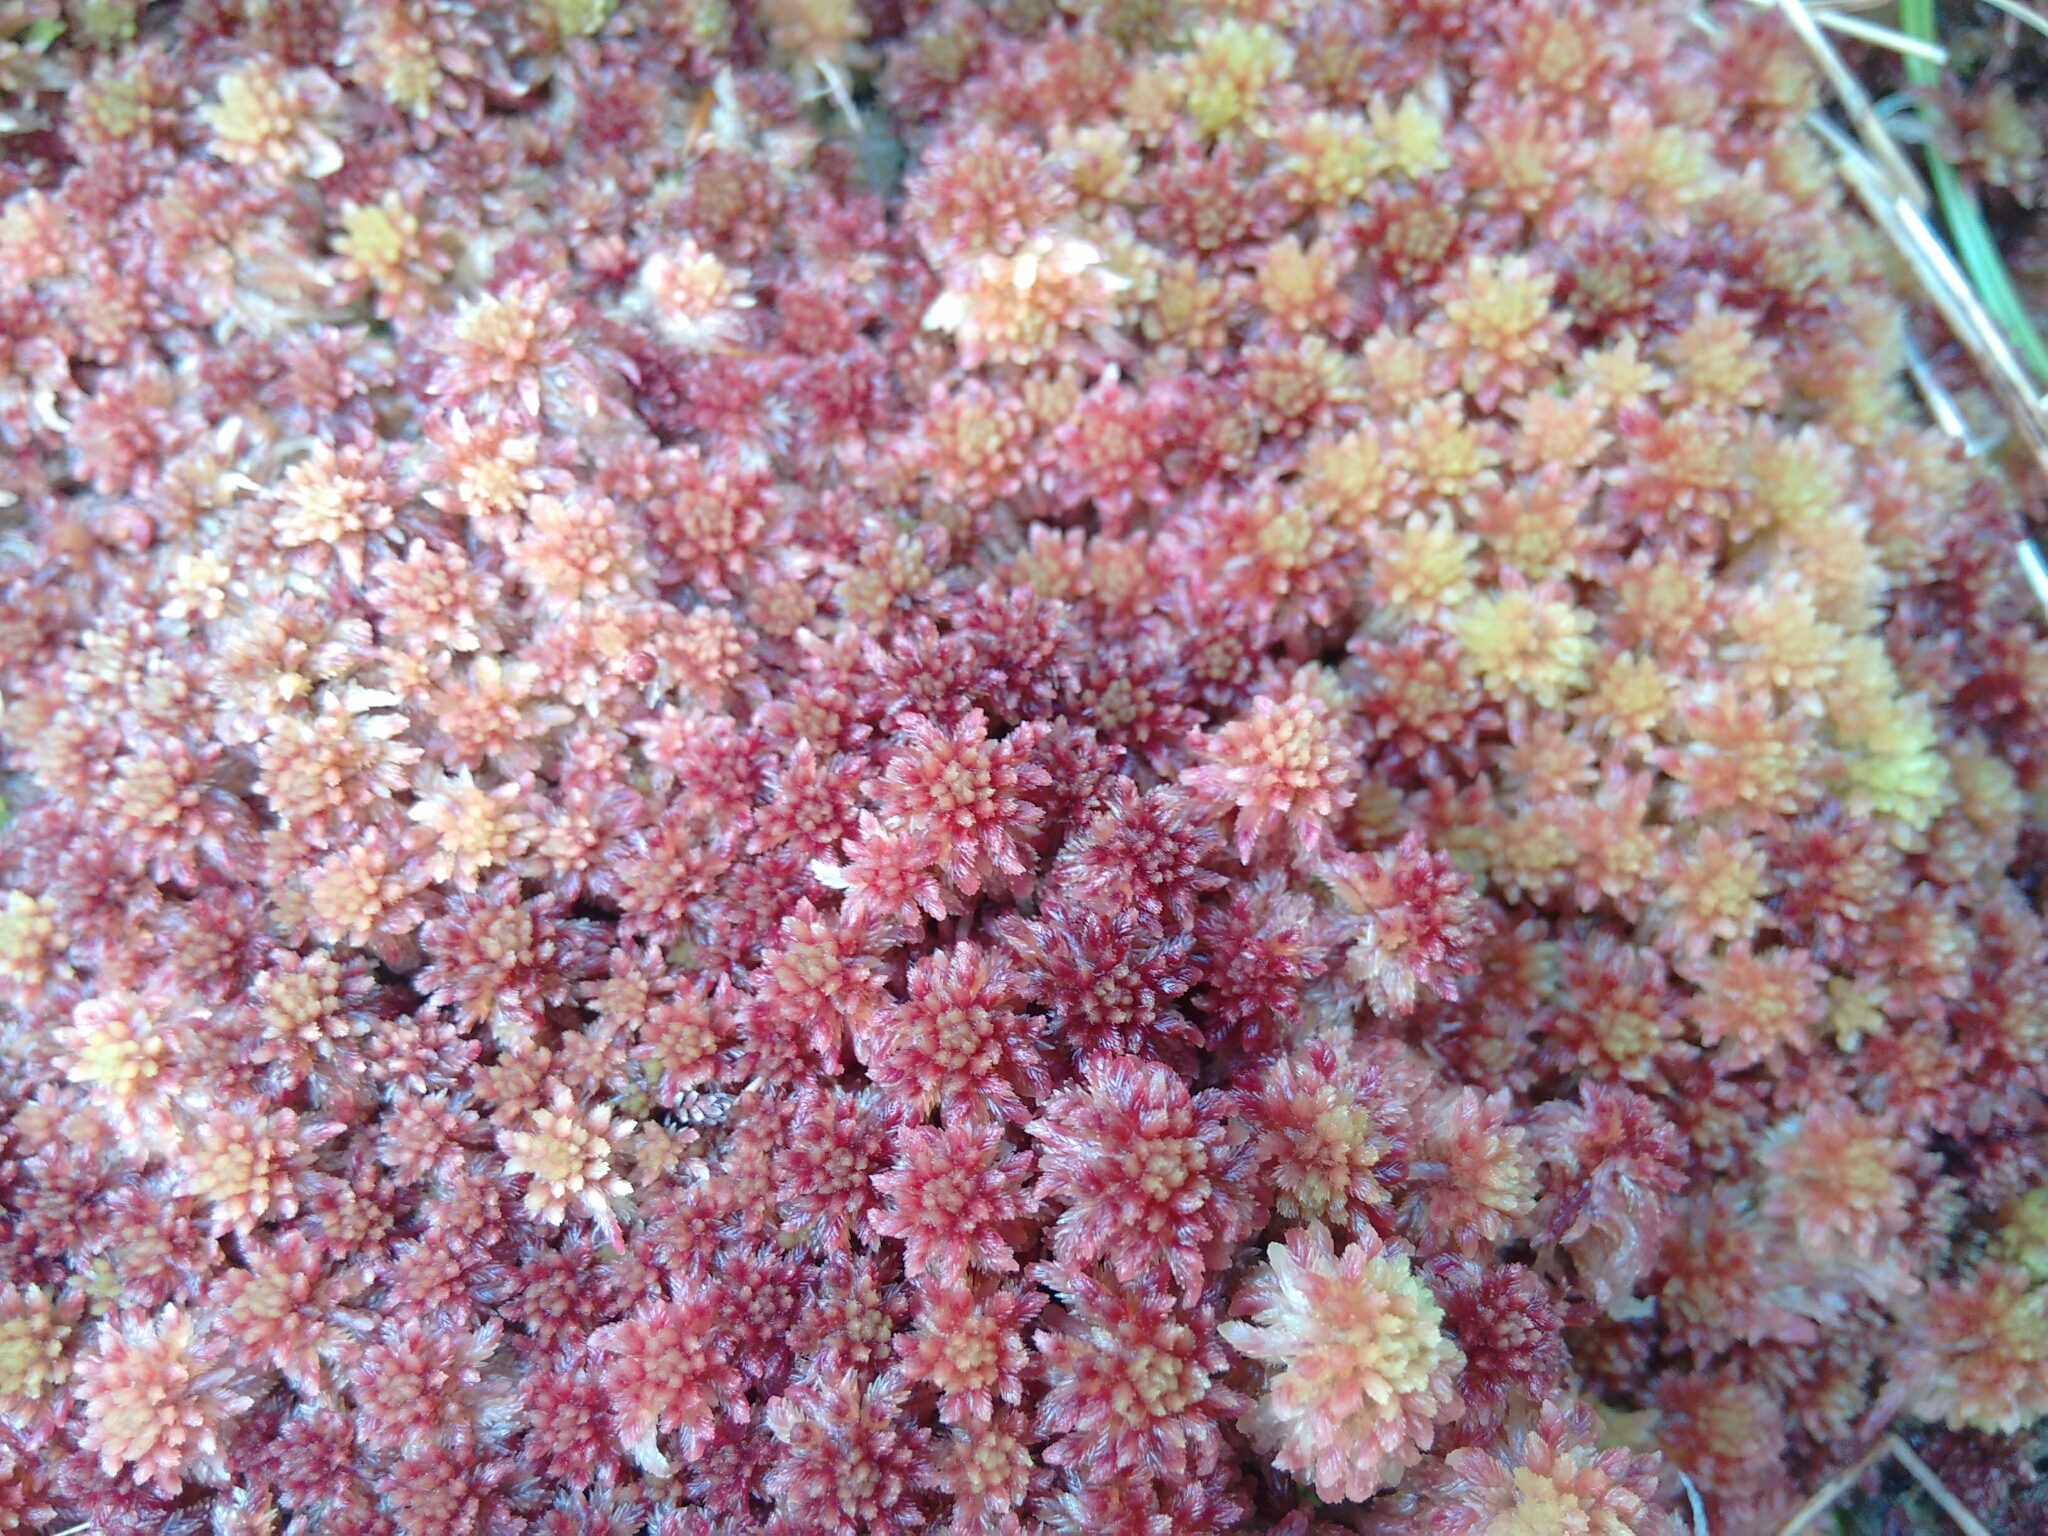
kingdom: Plantae
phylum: Bryophyta
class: Sphagnopsida
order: Sphagnales
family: Sphagnaceae
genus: Sphagnum
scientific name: Sphagnum capillifolium
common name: Small red peat moss
